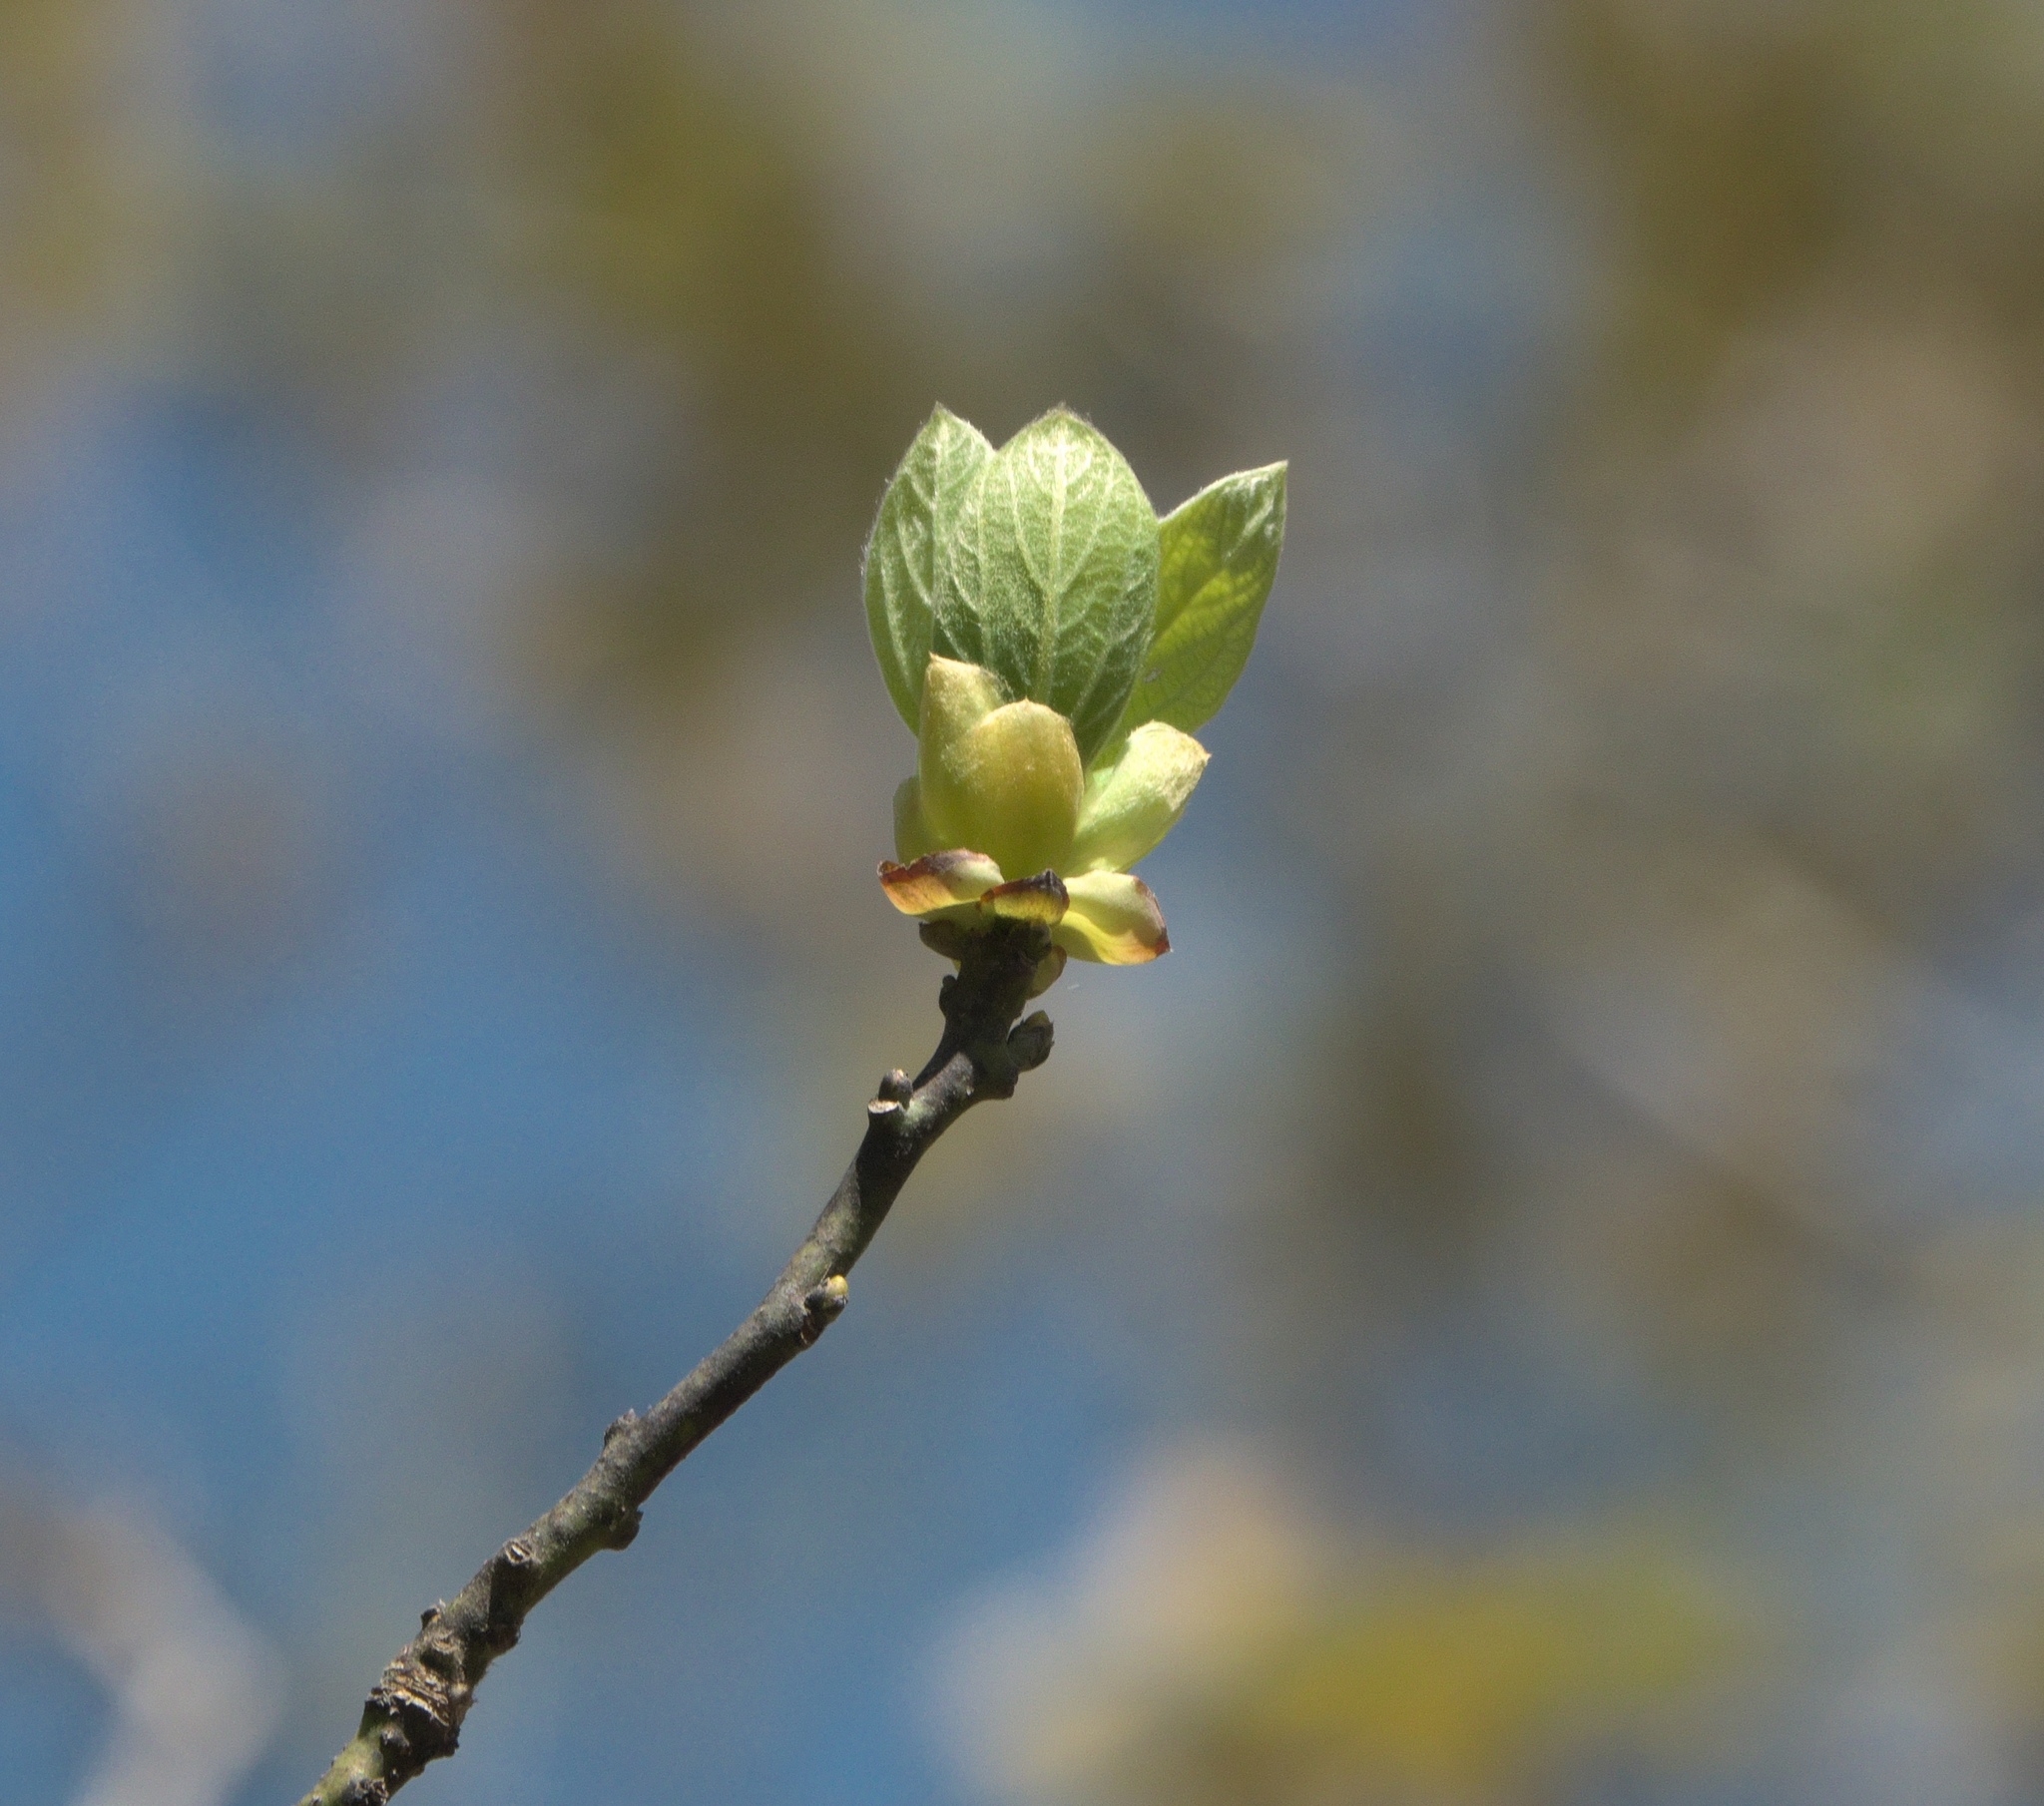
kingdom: Plantae
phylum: Tracheophyta
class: Magnoliopsida
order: Laurales
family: Lauraceae
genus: Sassafras
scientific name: Sassafras albidum
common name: Sassafras
